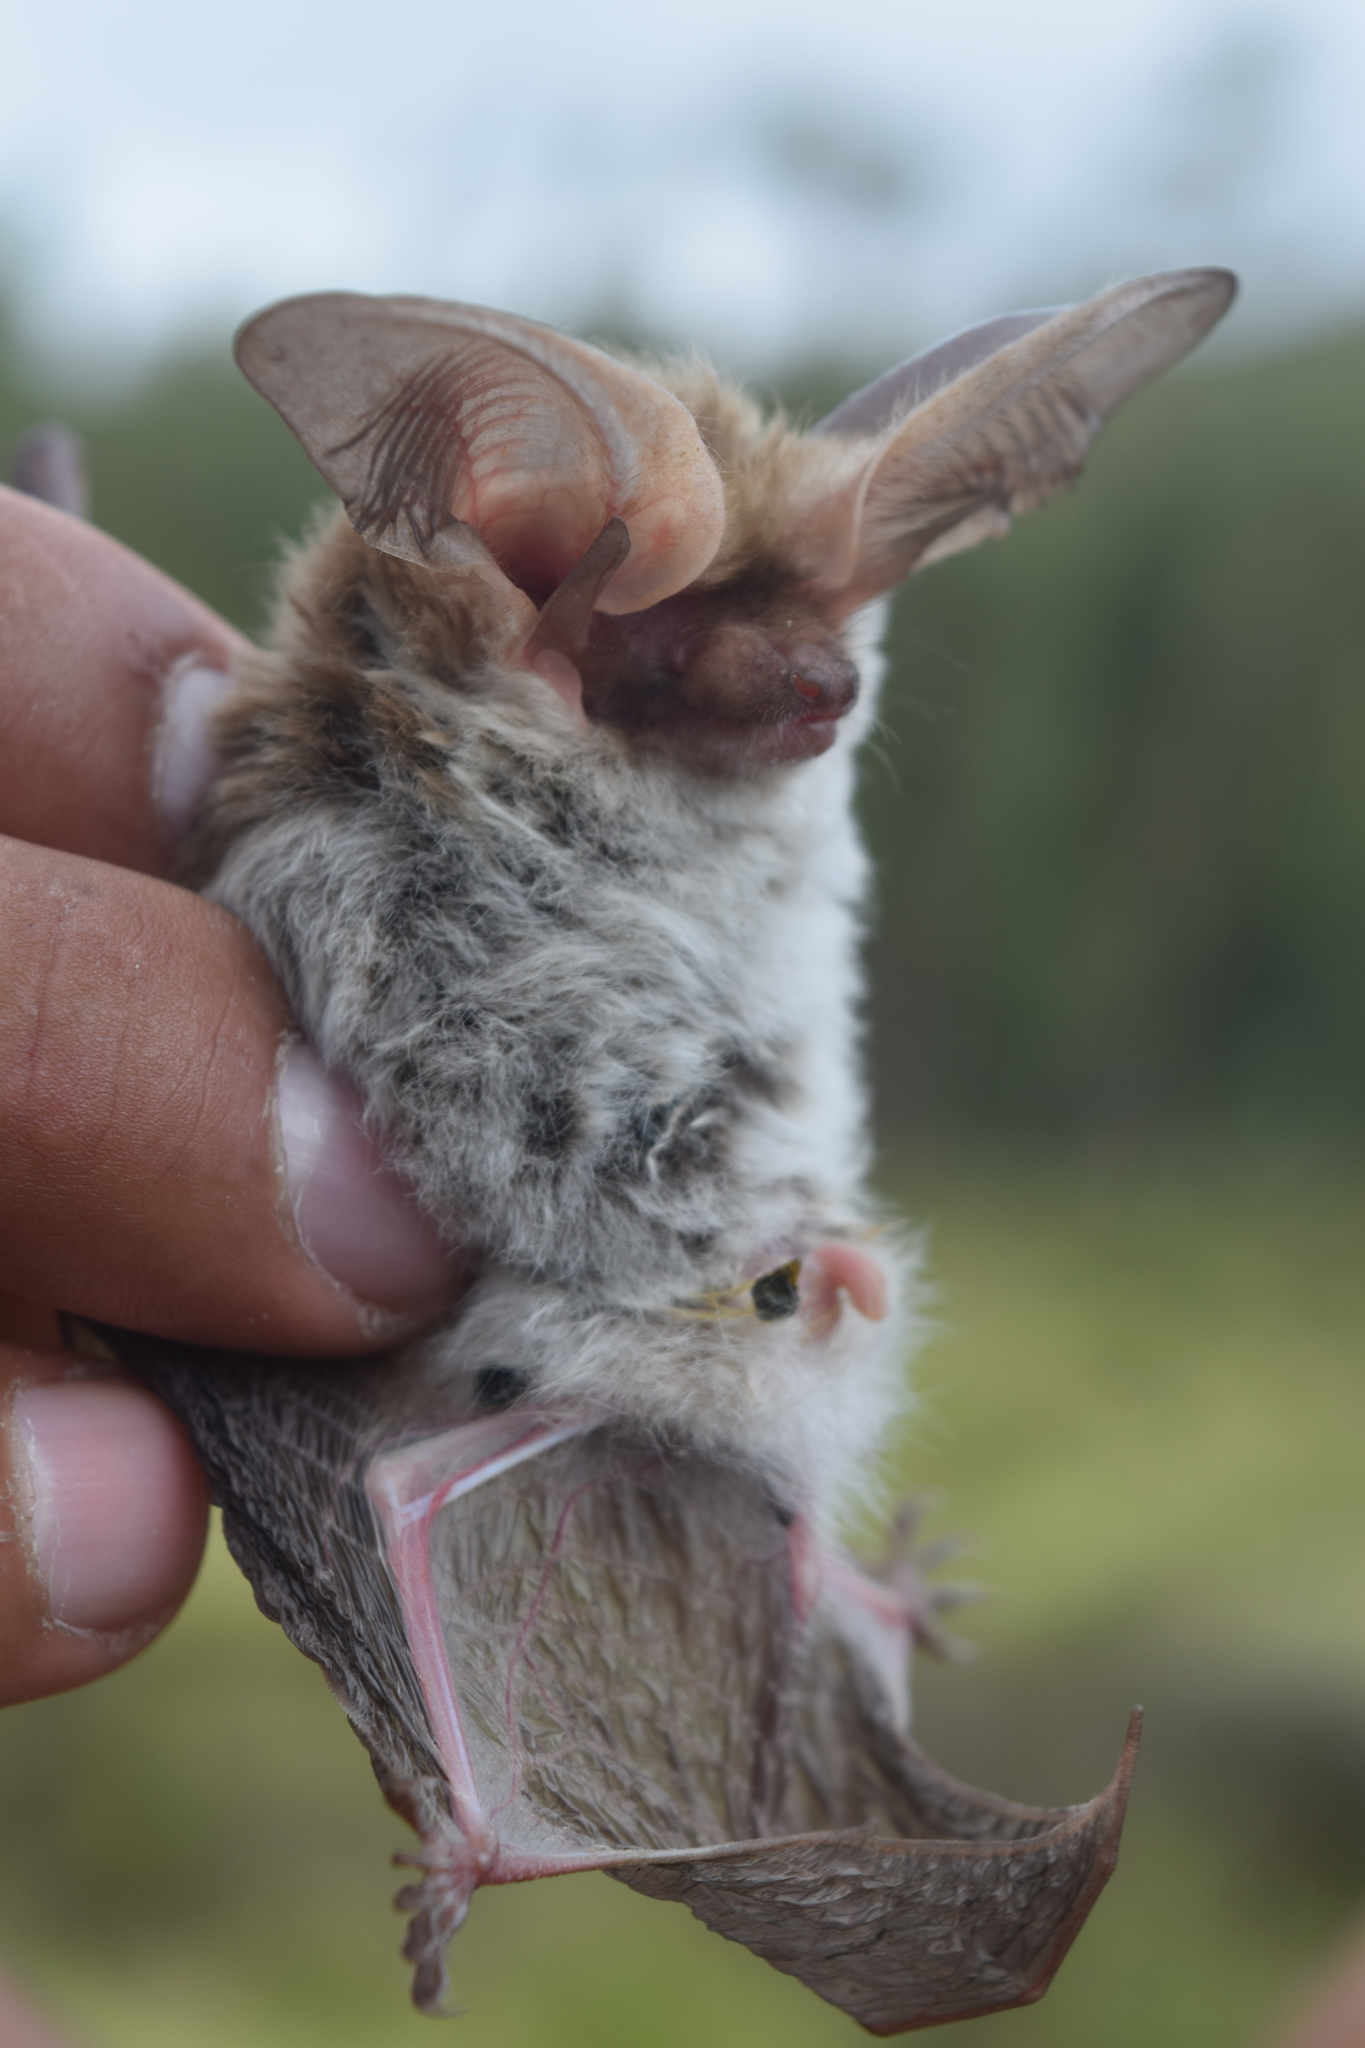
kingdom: Animalia
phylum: Chordata
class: Mammalia
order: Chiroptera
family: Vespertilionidae
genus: Histiotus
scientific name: Histiotus
